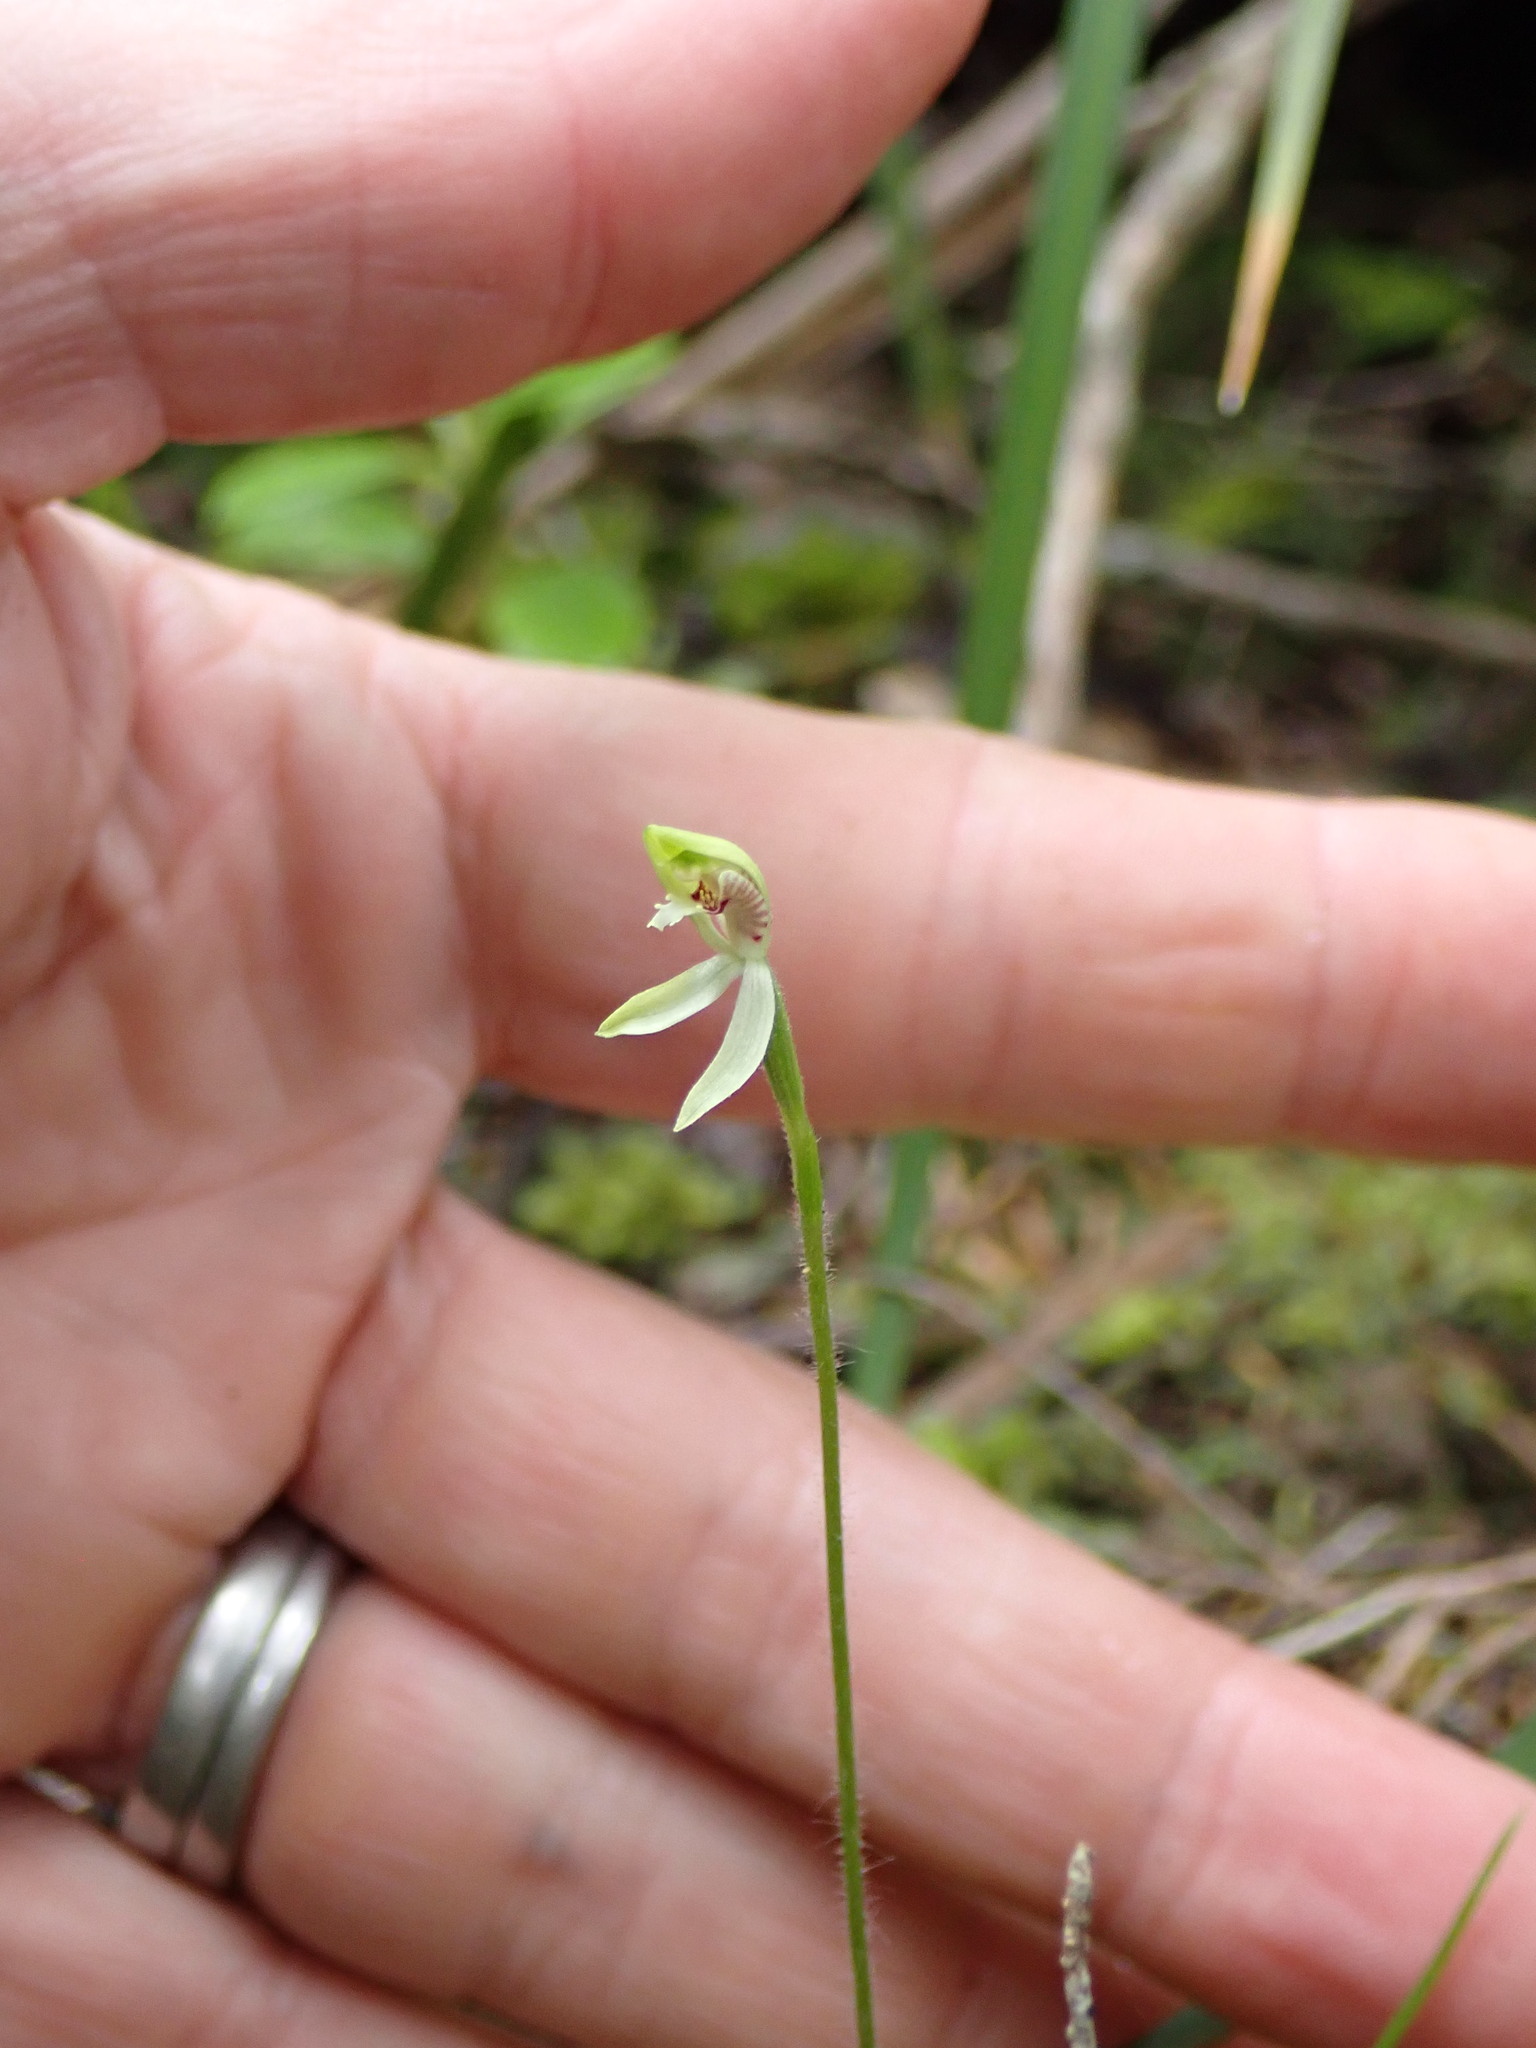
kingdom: Plantae
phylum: Tracheophyta
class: Liliopsida
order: Asparagales
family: Orchidaceae
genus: Caladenia
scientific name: Caladenia chlorostyla
